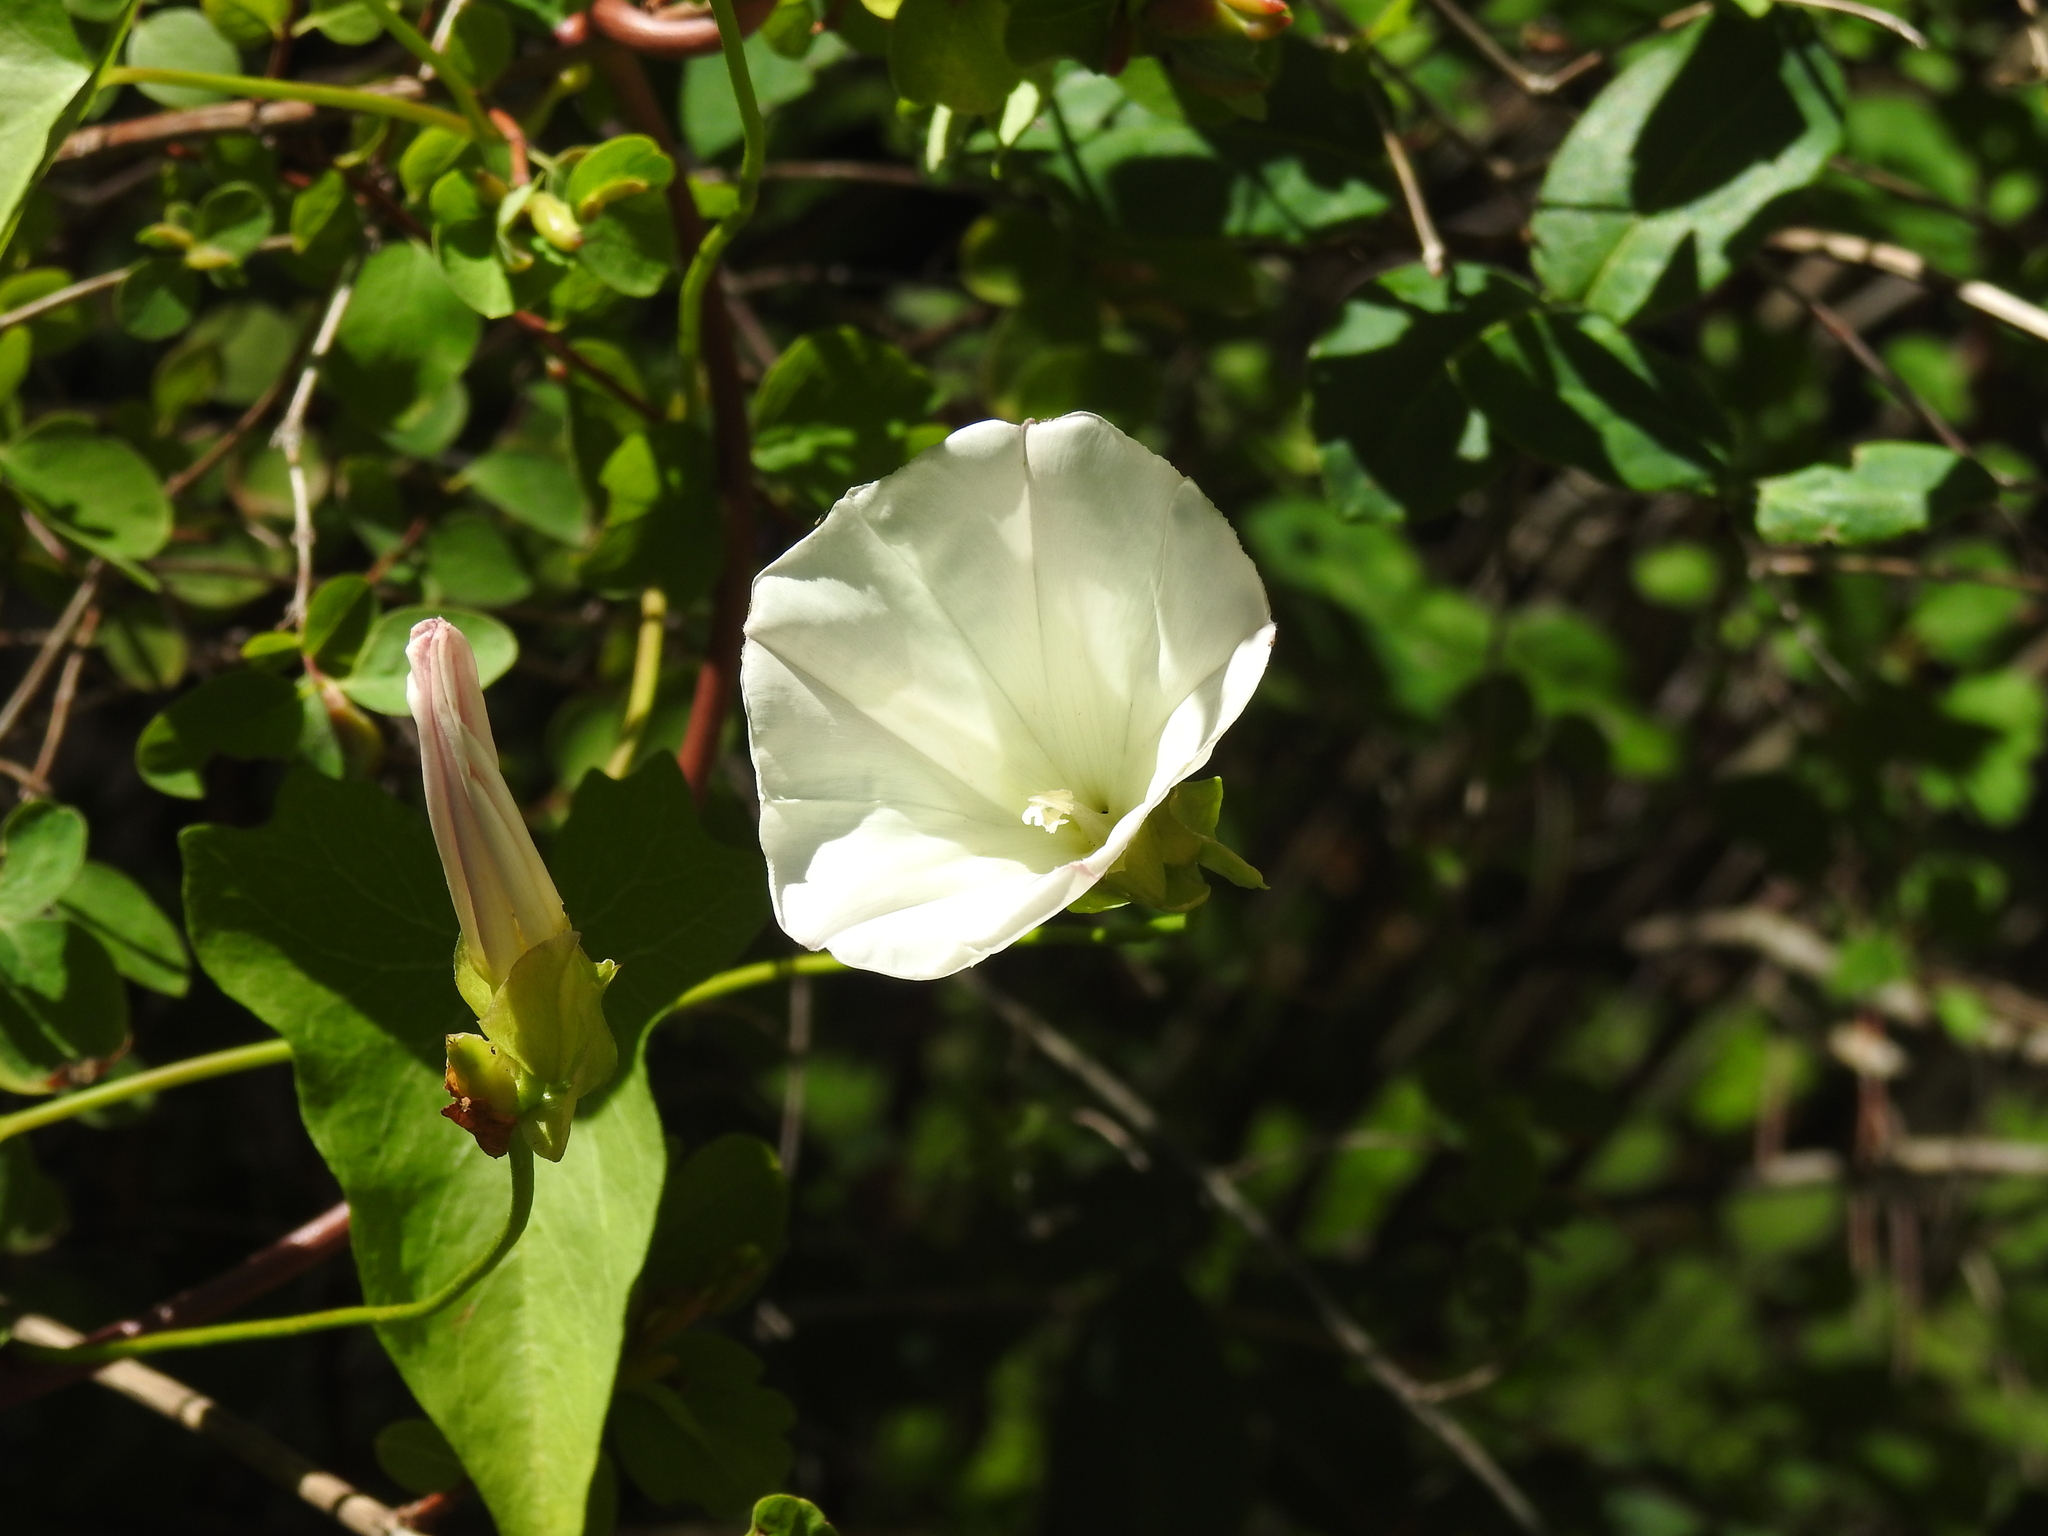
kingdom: Plantae
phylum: Tracheophyta
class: Magnoliopsida
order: Solanales
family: Convolvulaceae
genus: Calystegia
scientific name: Calystegia purpurata
